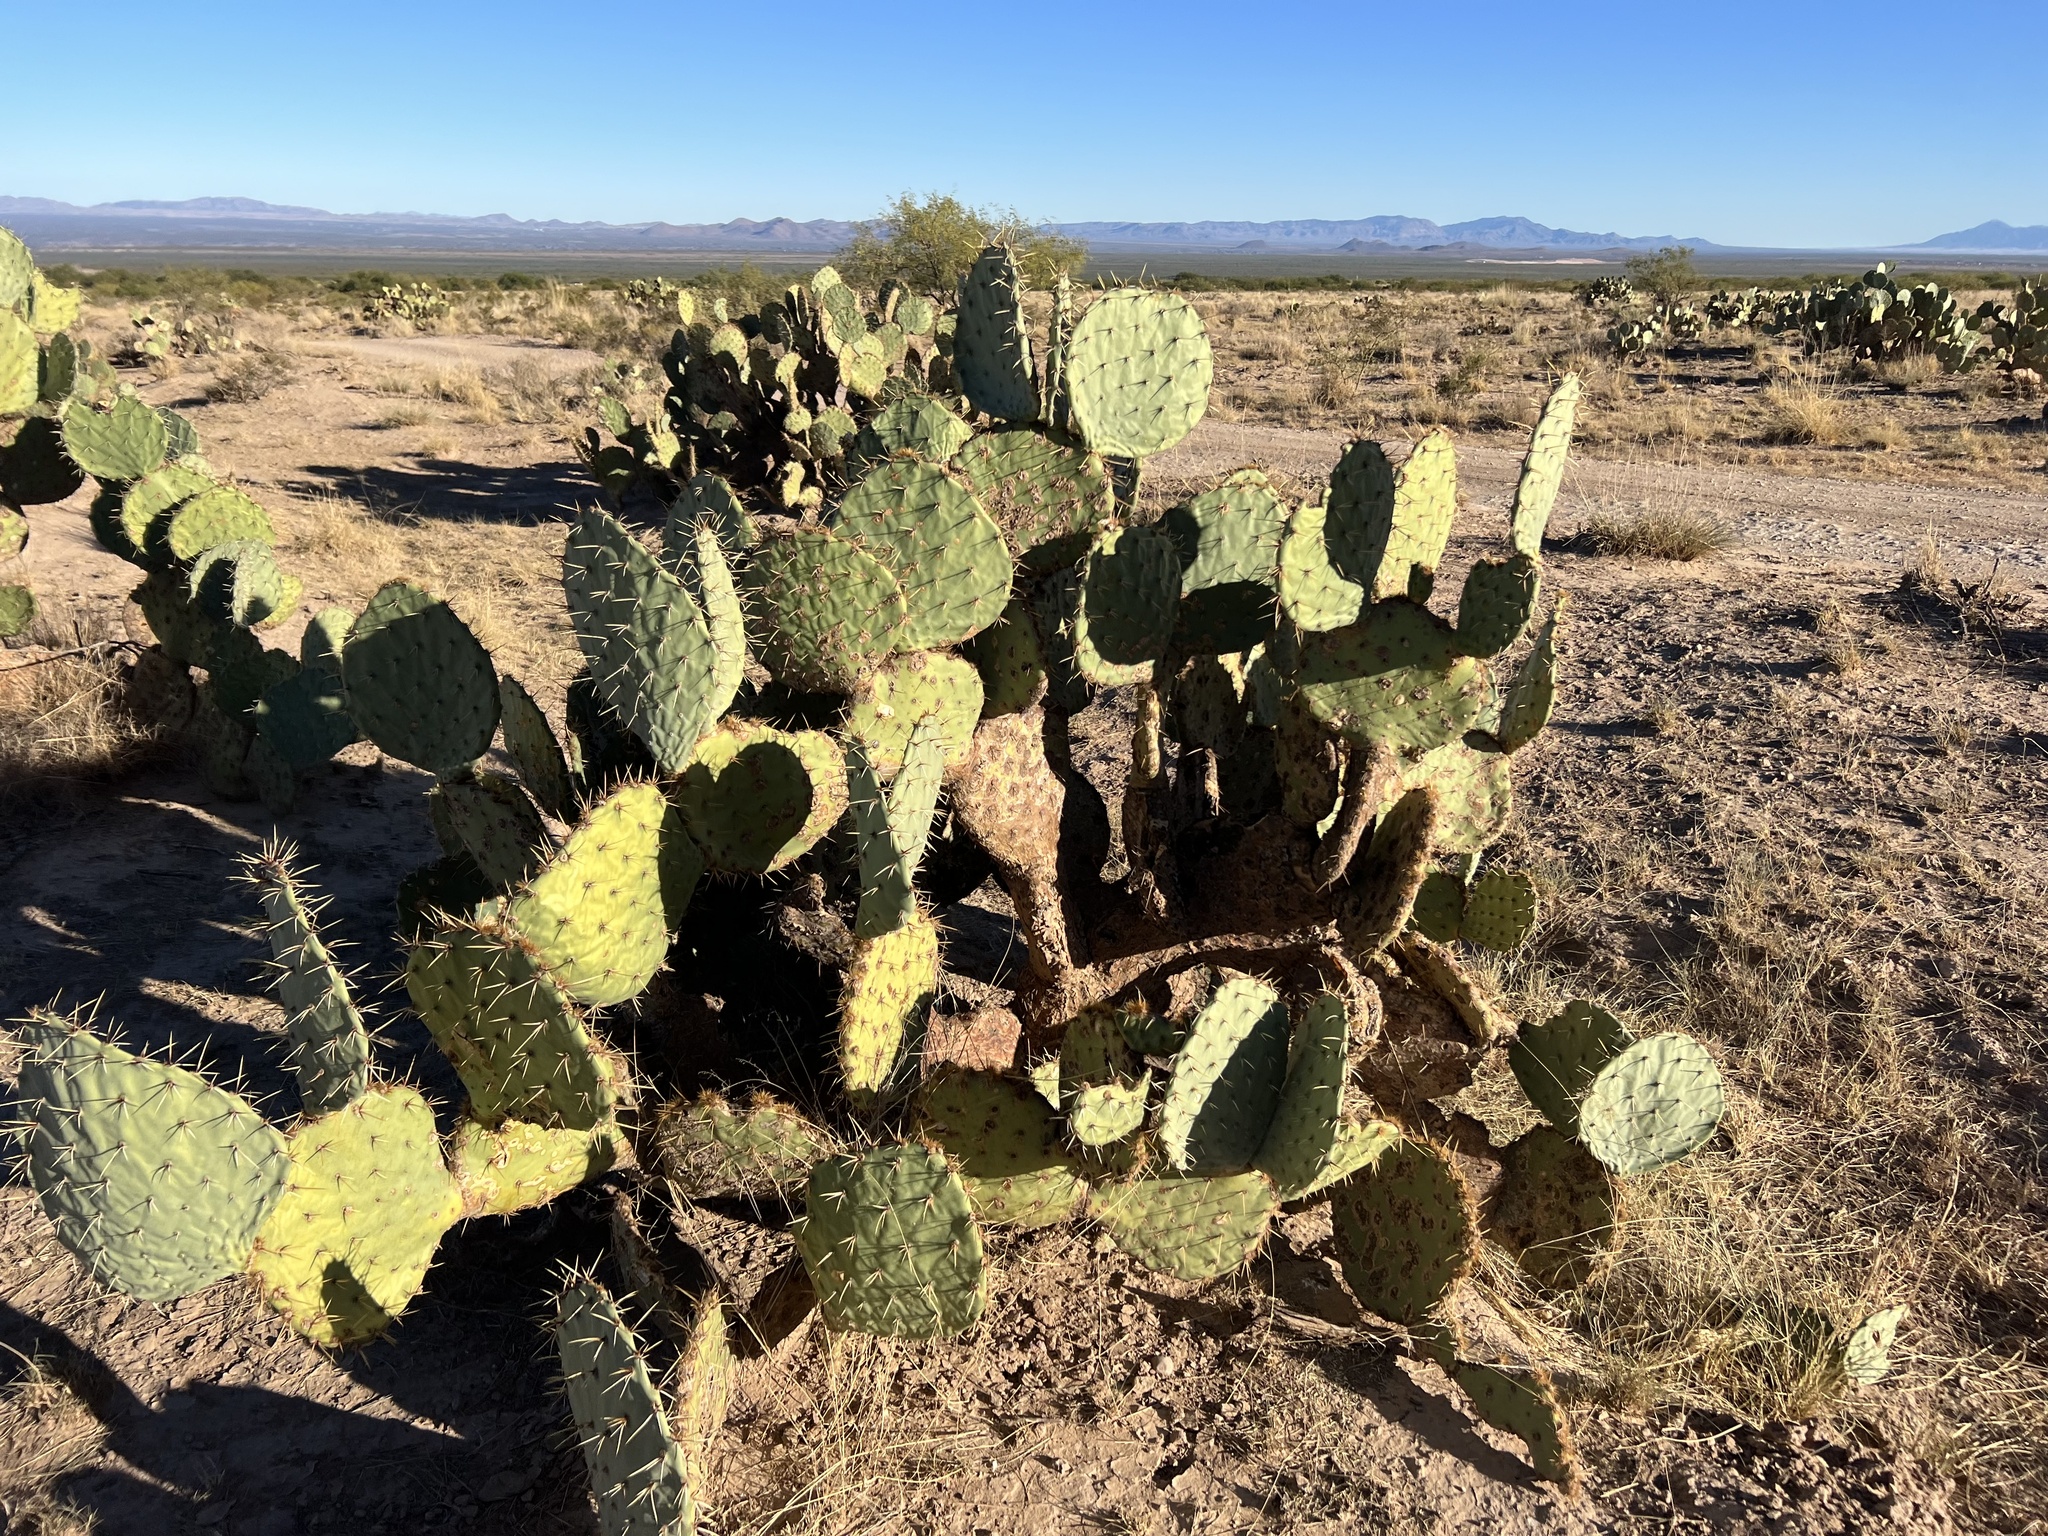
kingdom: Plantae
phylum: Tracheophyta
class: Magnoliopsida
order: Caryophyllales
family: Cactaceae
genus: Opuntia
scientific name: Opuntia engelmannii
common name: Cactus-apple
